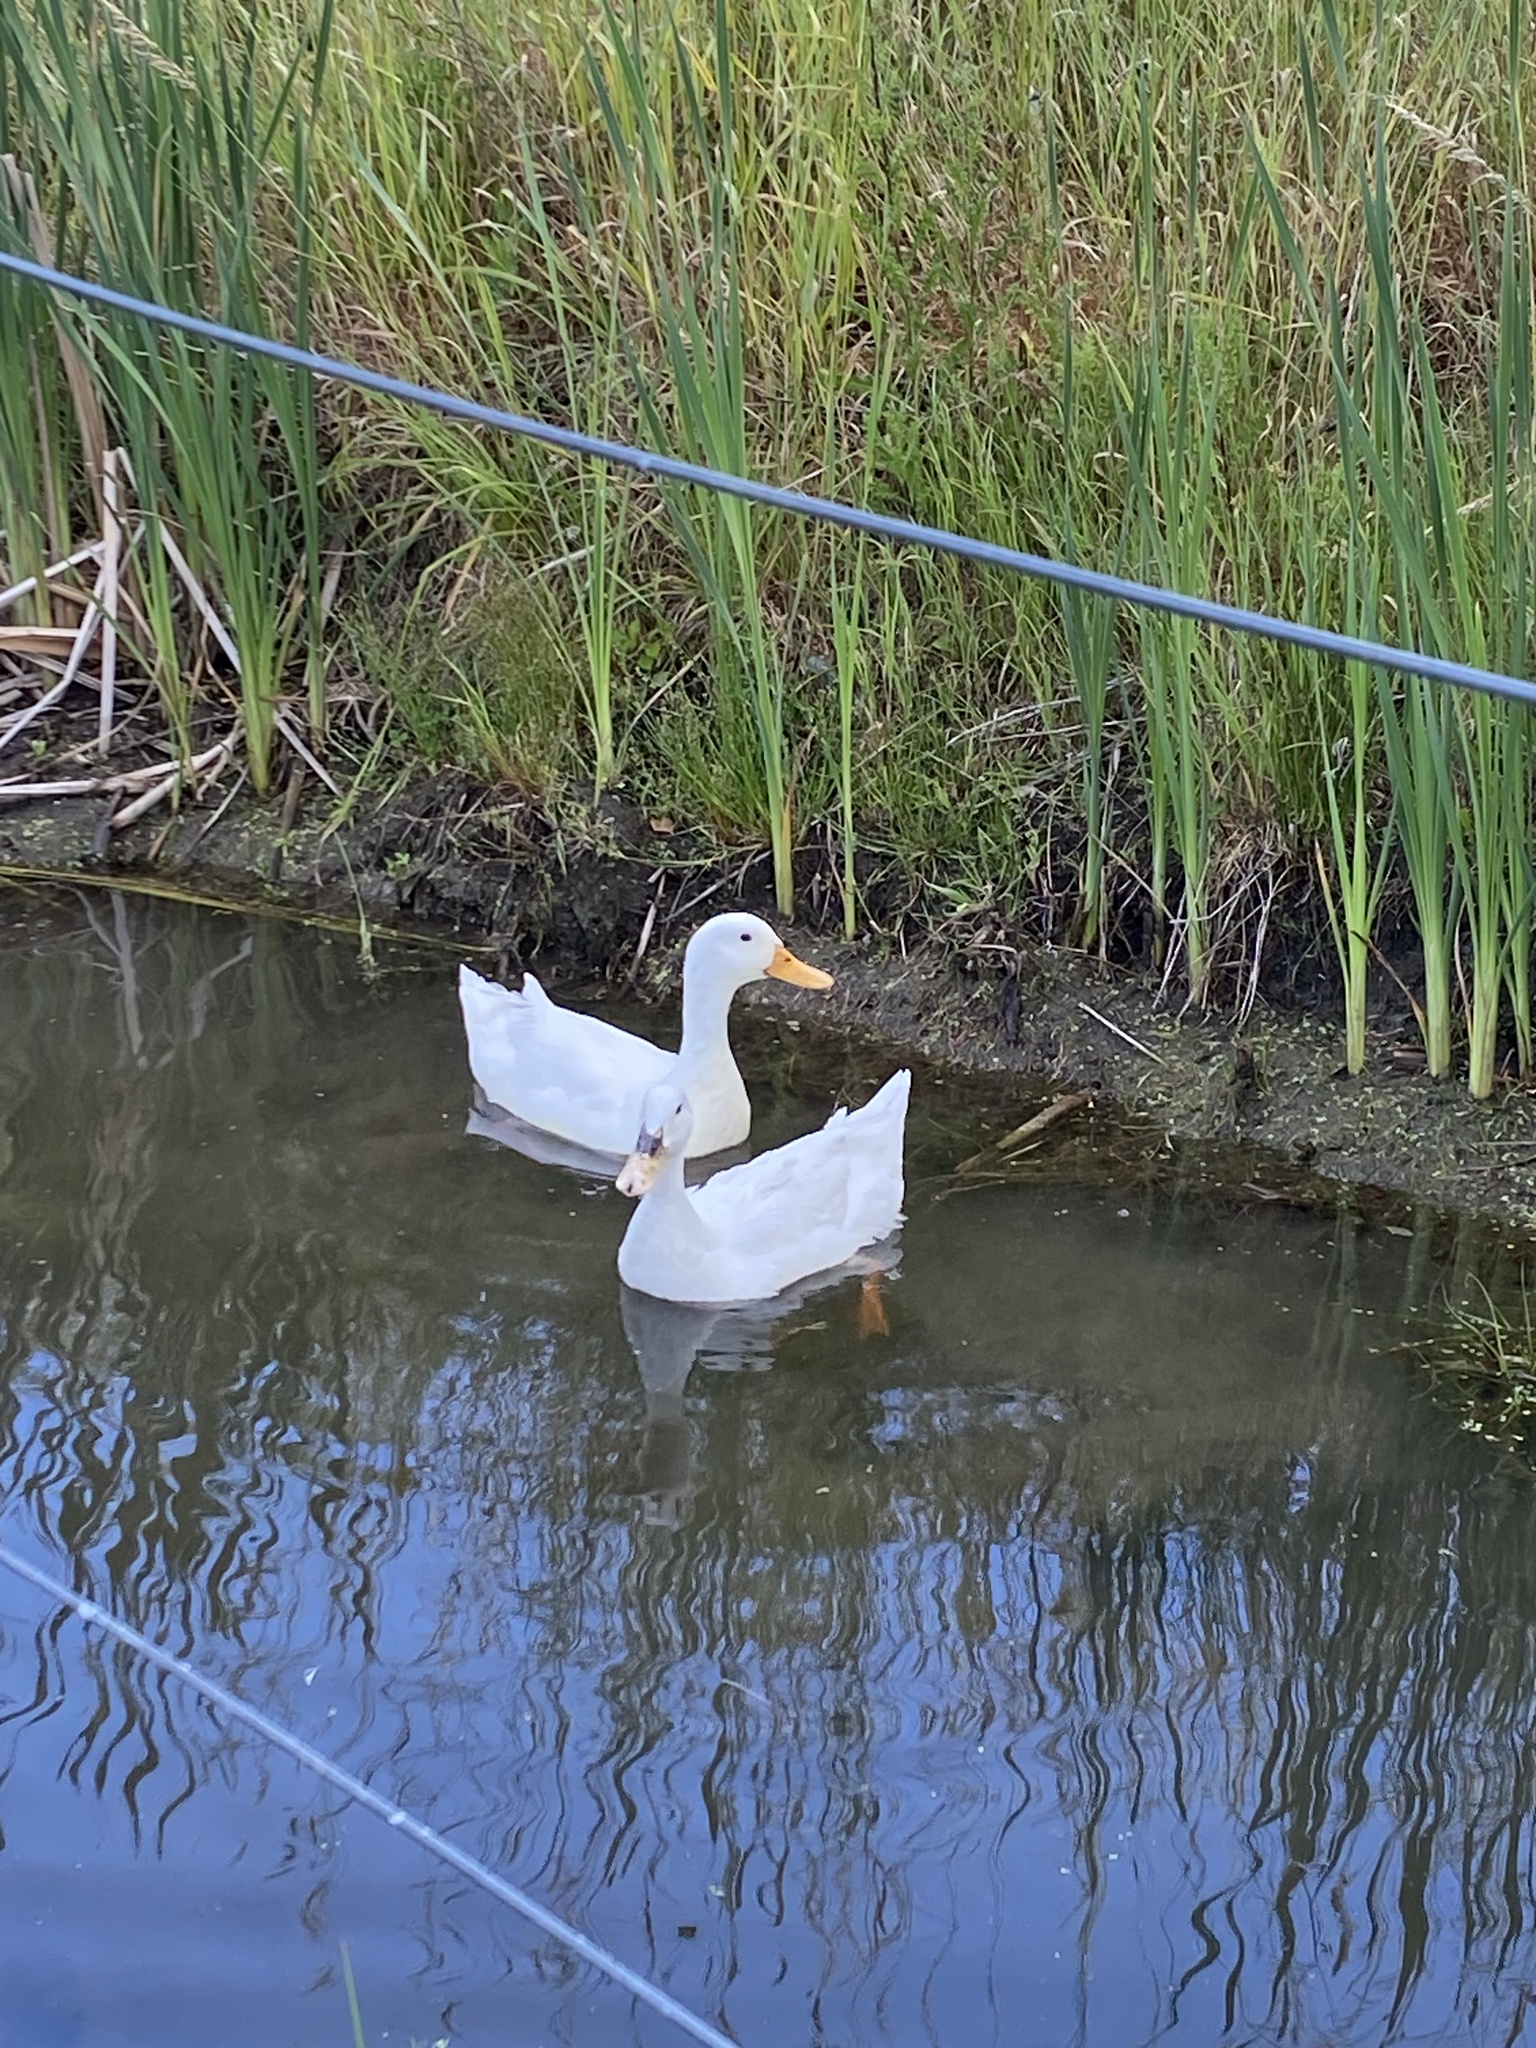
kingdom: Animalia
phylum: Chordata
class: Aves
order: Anseriformes
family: Anatidae
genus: Anas
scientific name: Anas platyrhynchos
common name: Mallard
